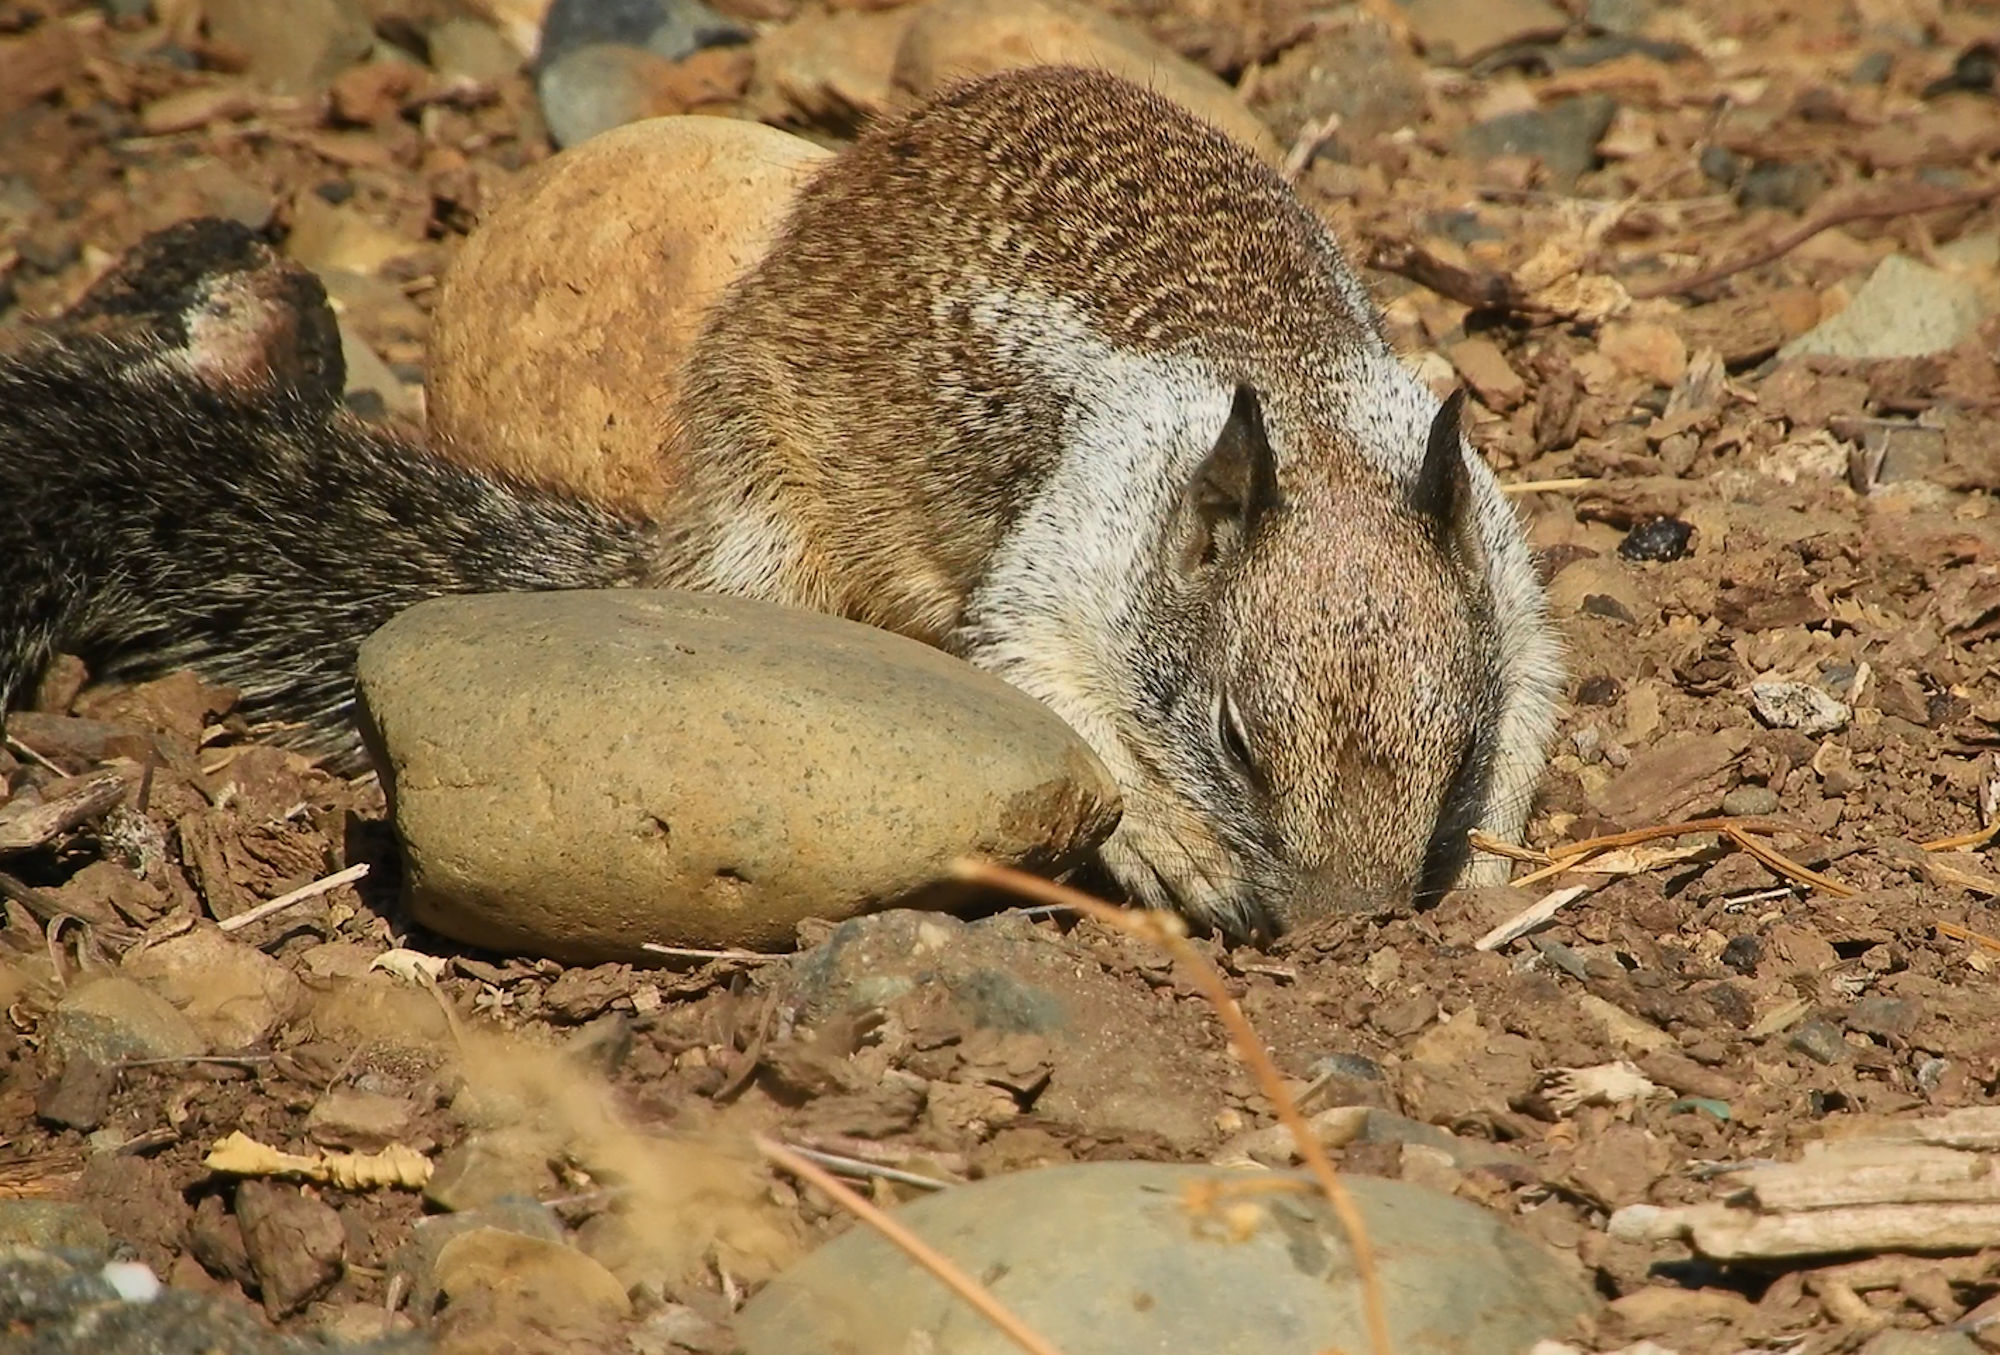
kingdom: Animalia
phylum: Chordata
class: Mammalia
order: Rodentia
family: Sciuridae
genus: Otospermophilus
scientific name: Otospermophilus beecheyi
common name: California ground squirrel
